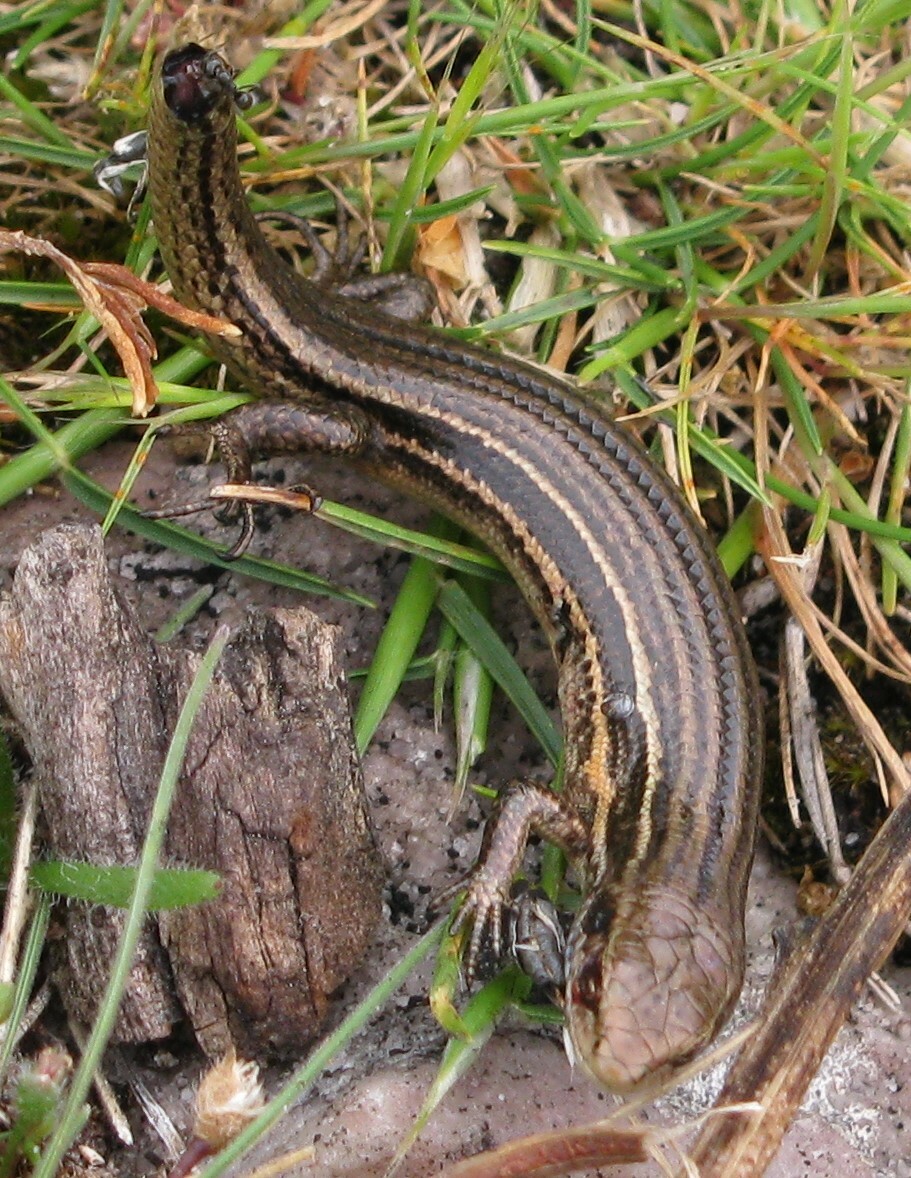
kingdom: Animalia
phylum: Chordata
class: Squamata
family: Scincidae
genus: Pseudemoia
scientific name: Pseudemoia pagenstecheri
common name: Southern grass tussock skink
